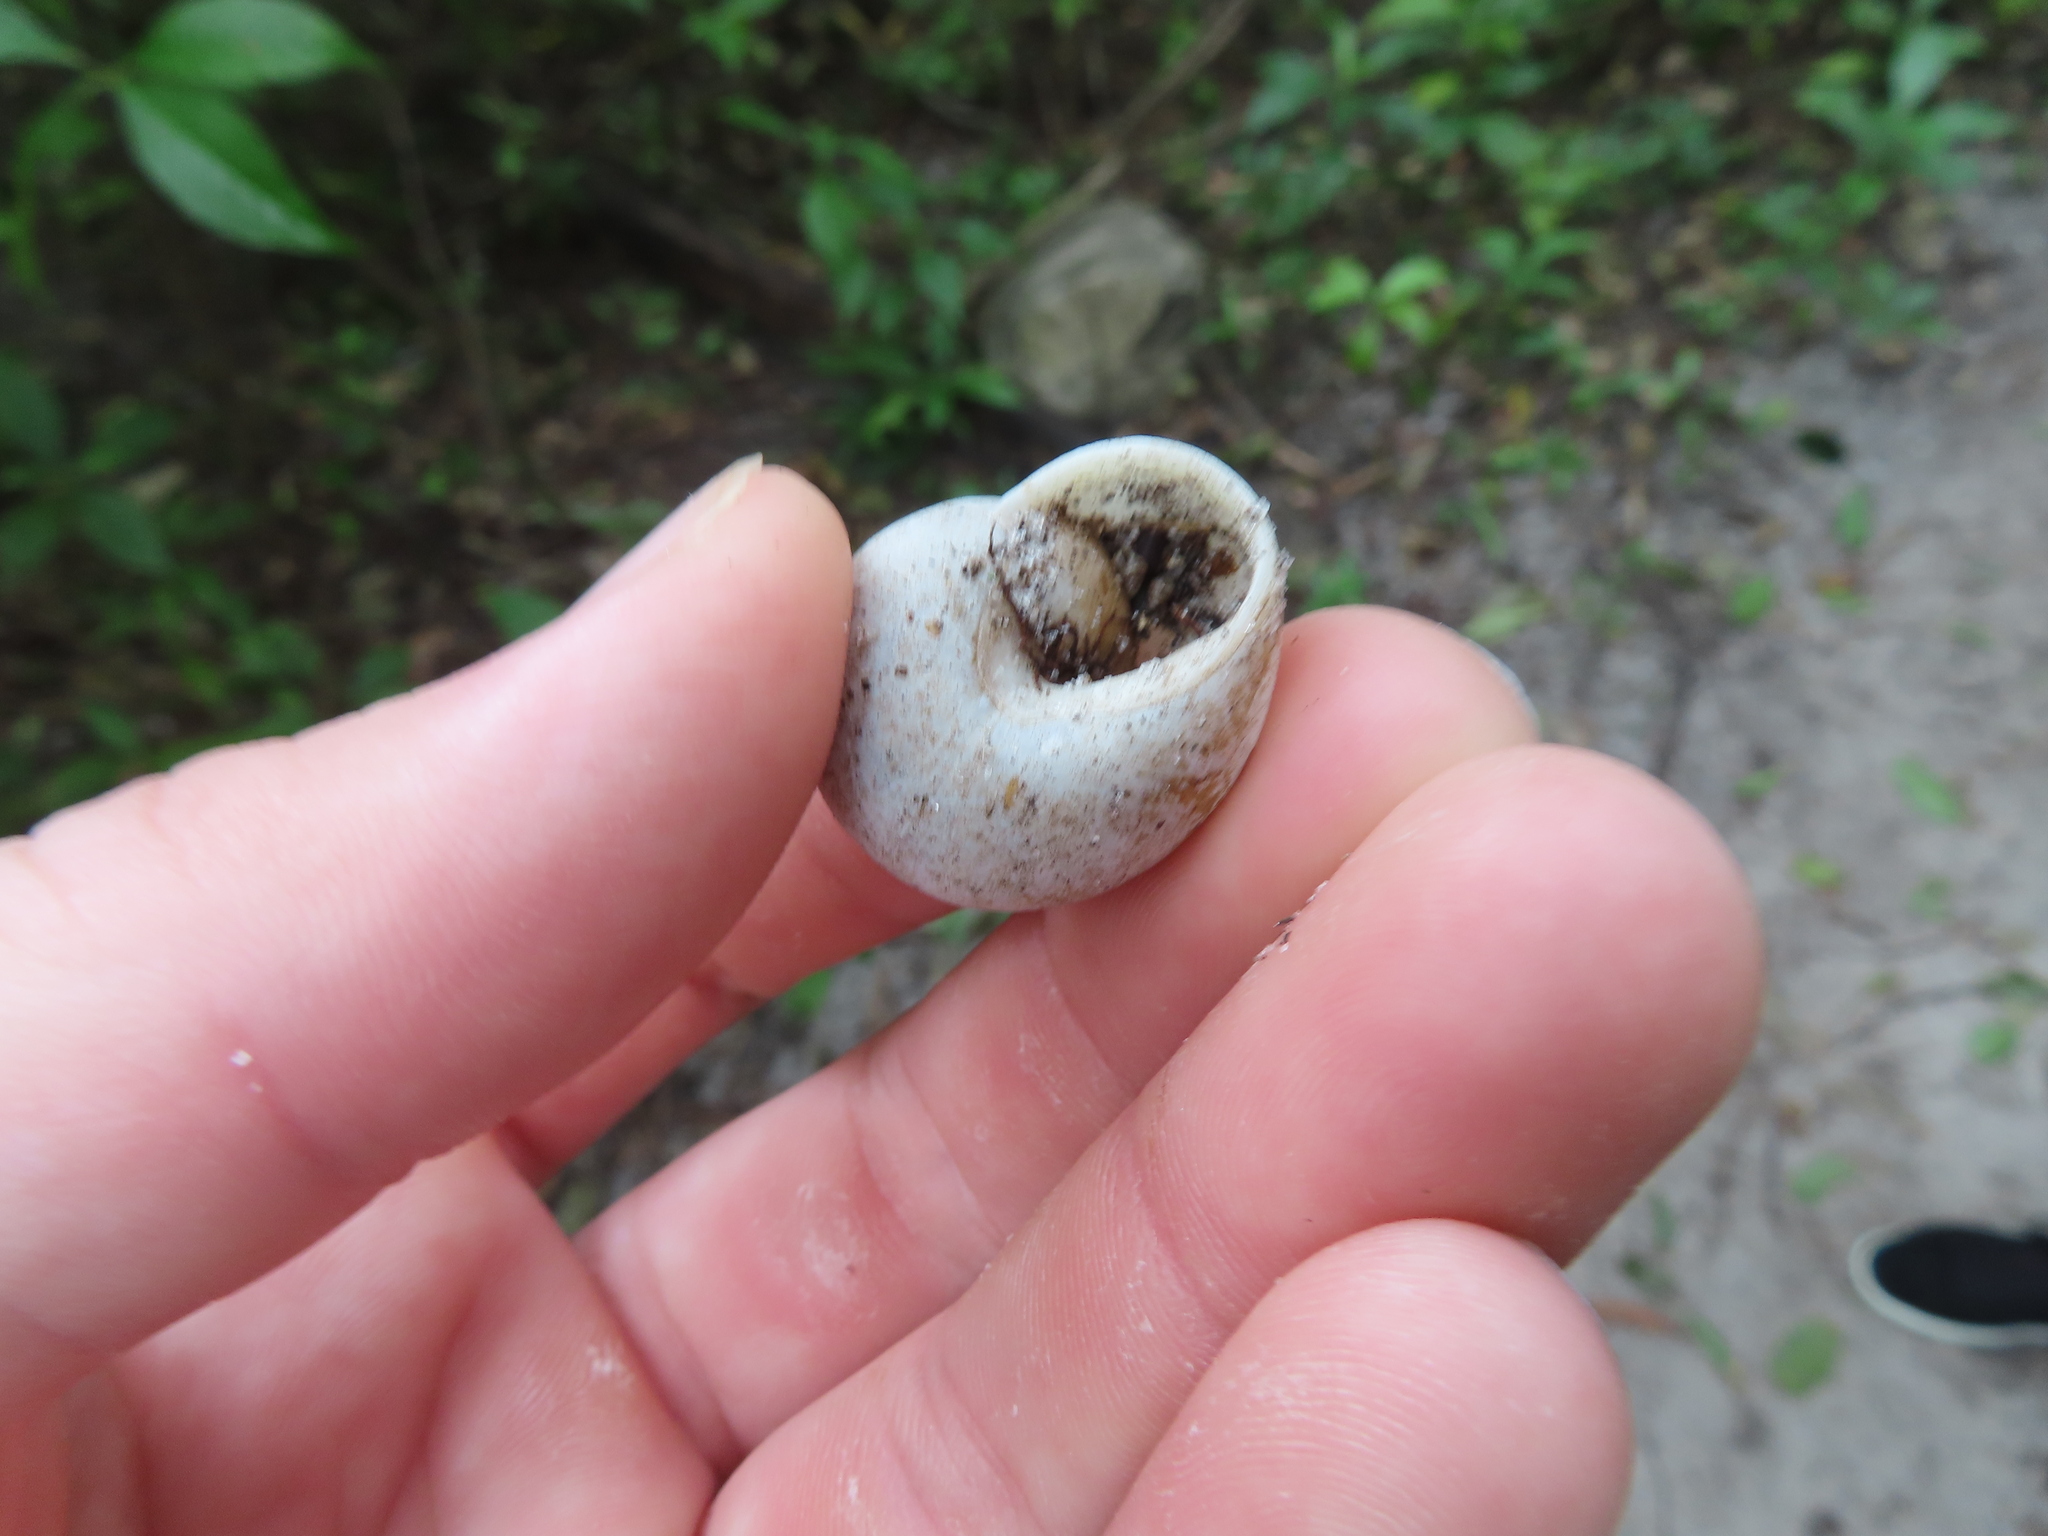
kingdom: Animalia
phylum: Mollusca
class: Gastropoda
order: Stylommatophora
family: Zachrysiidae
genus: Zachrysia
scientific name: Zachrysia provisoria
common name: Garden zachrysia
